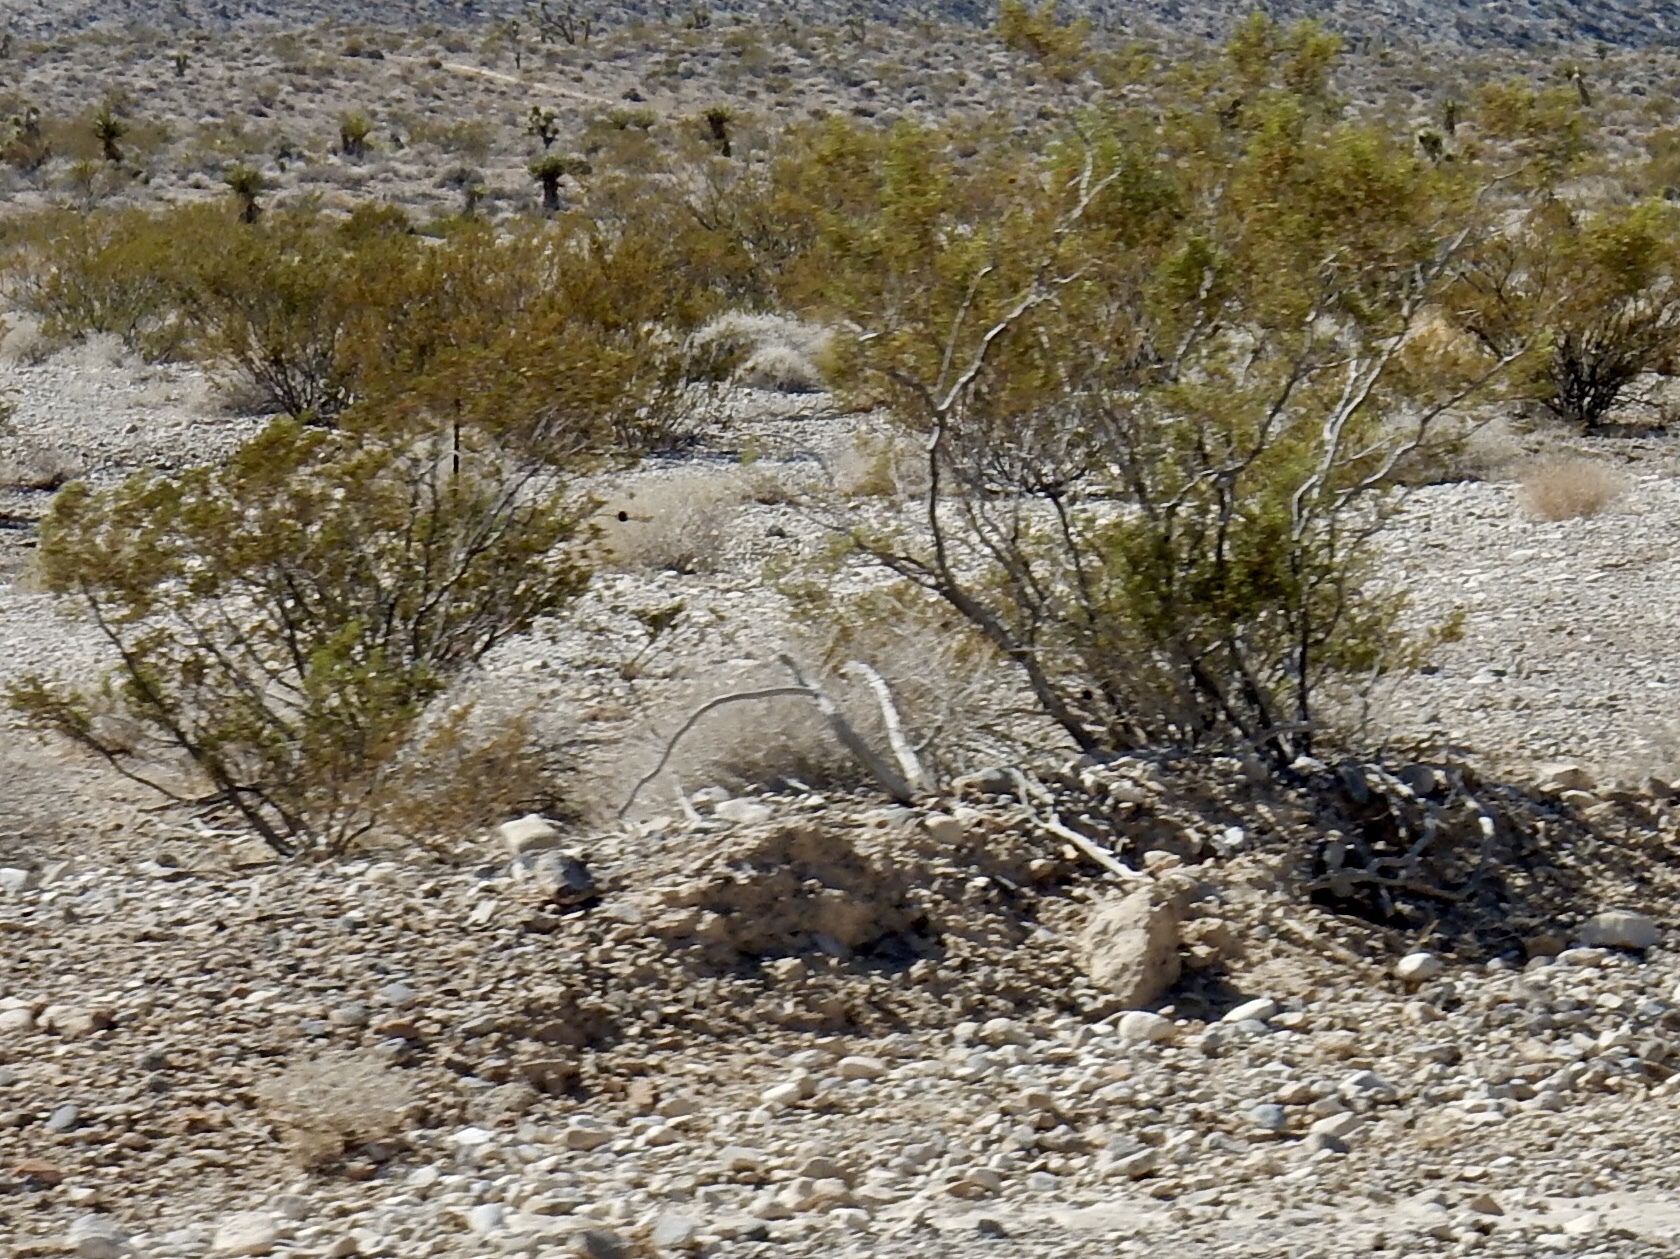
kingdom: Plantae
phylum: Tracheophyta
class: Magnoliopsida
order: Zygophyllales
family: Zygophyllaceae
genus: Larrea
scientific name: Larrea tridentata
